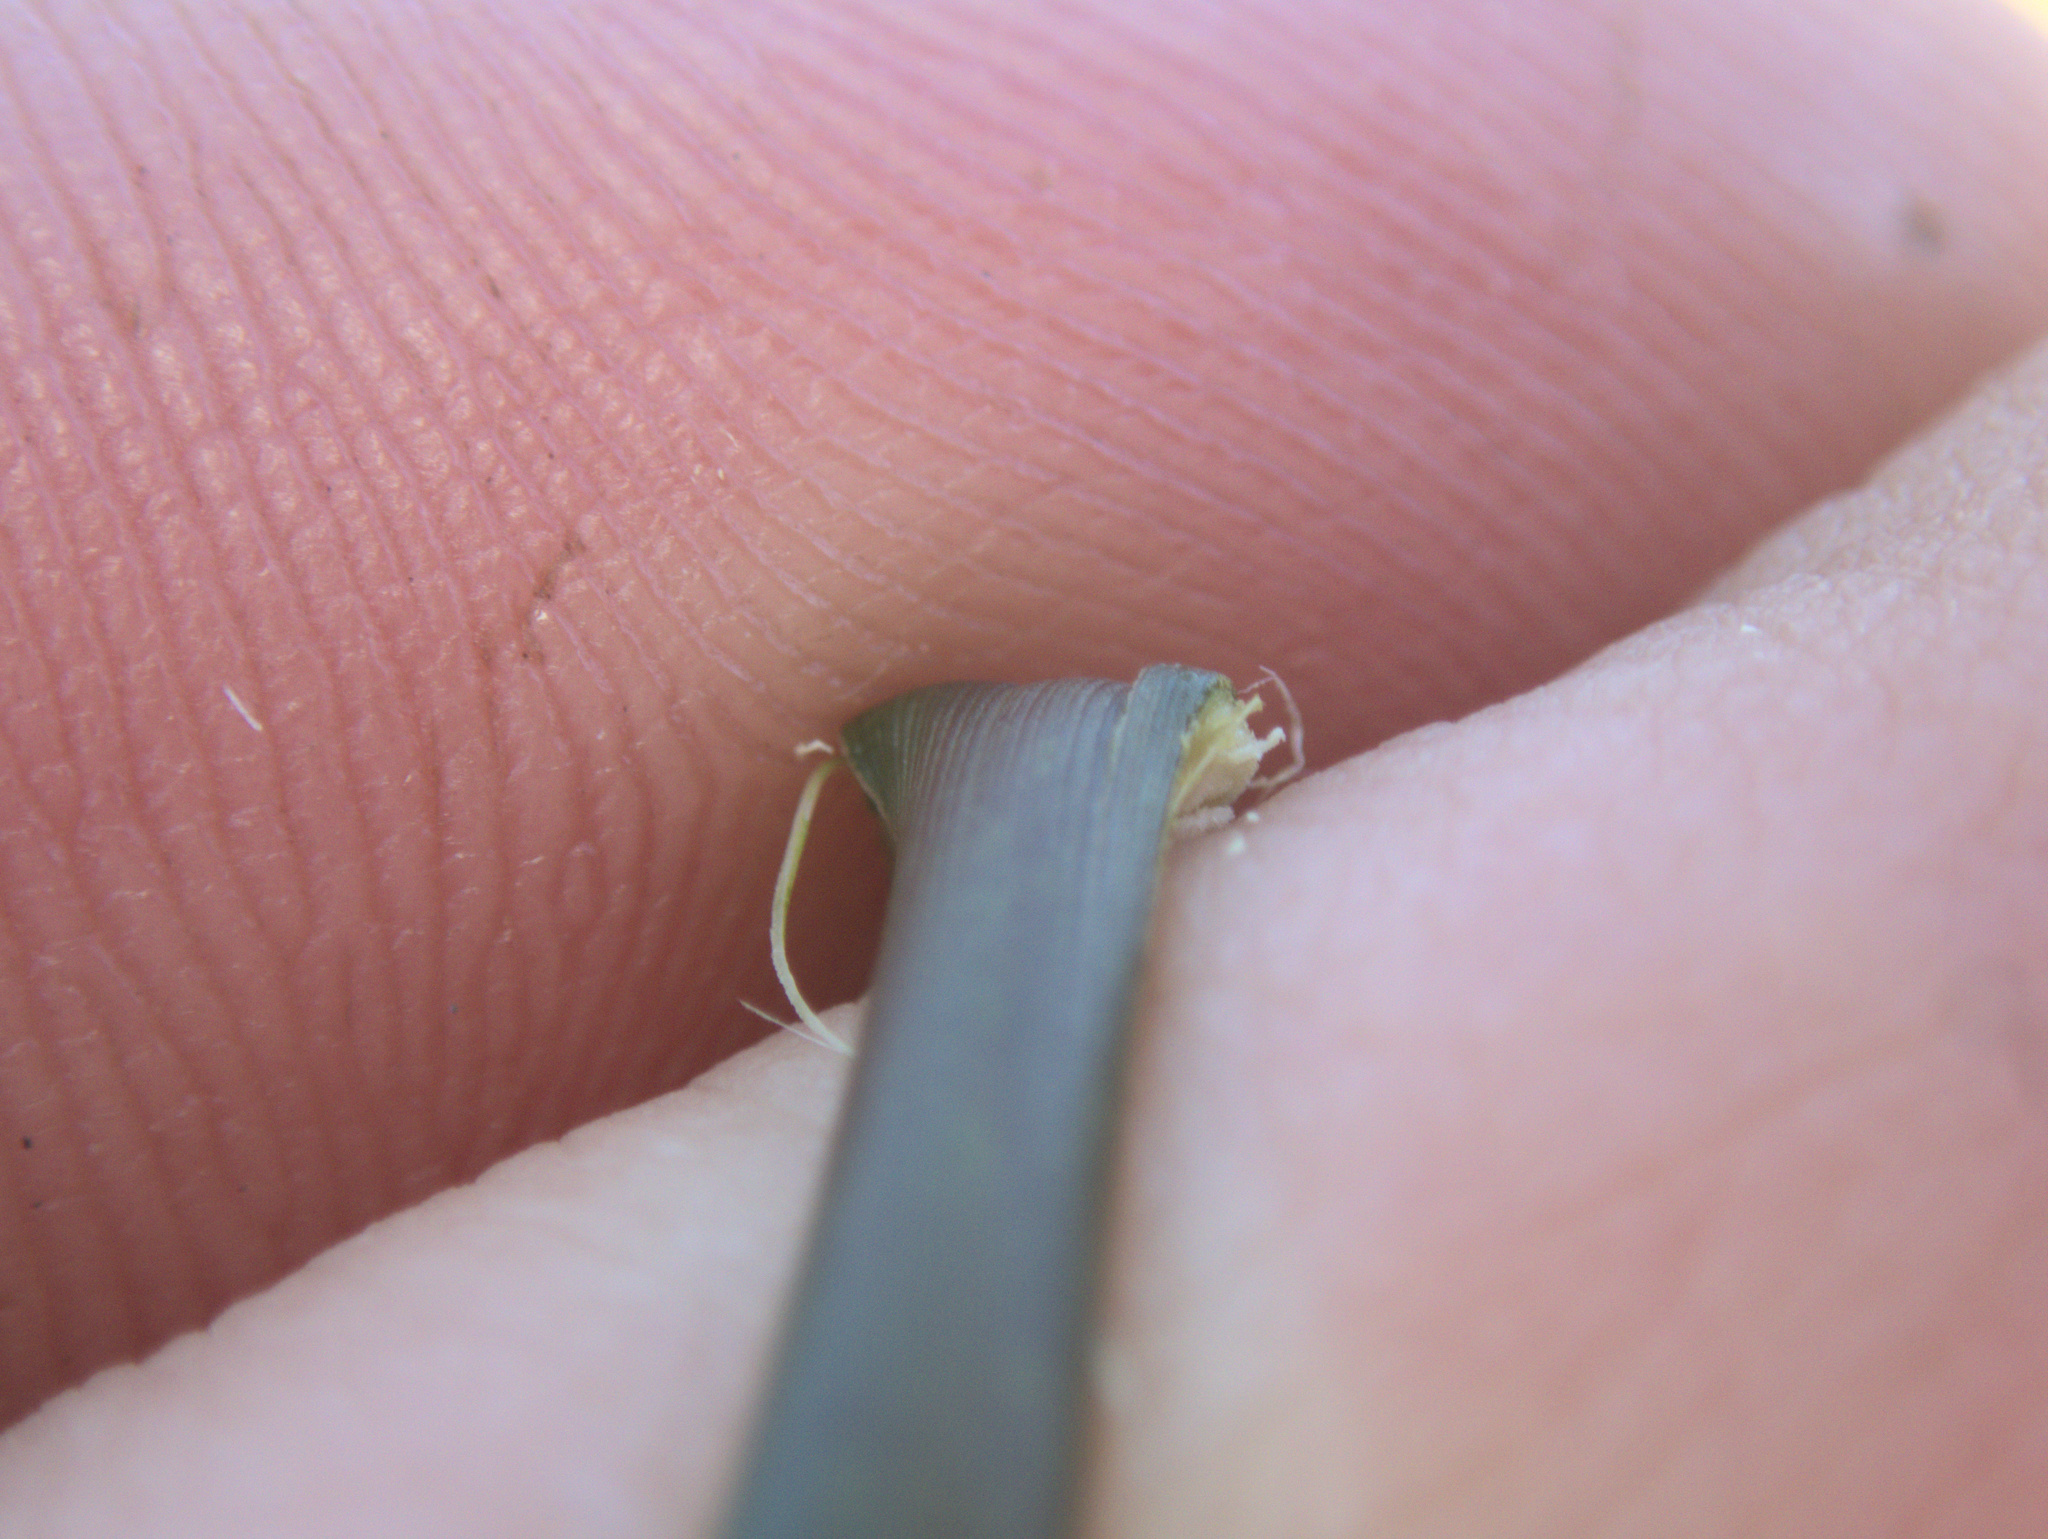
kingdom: Plantae
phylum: Tracheophyta
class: Liliopsida
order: Poales
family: Juncaceae
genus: Juncus
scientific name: Juncus usitatus
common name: Rush
